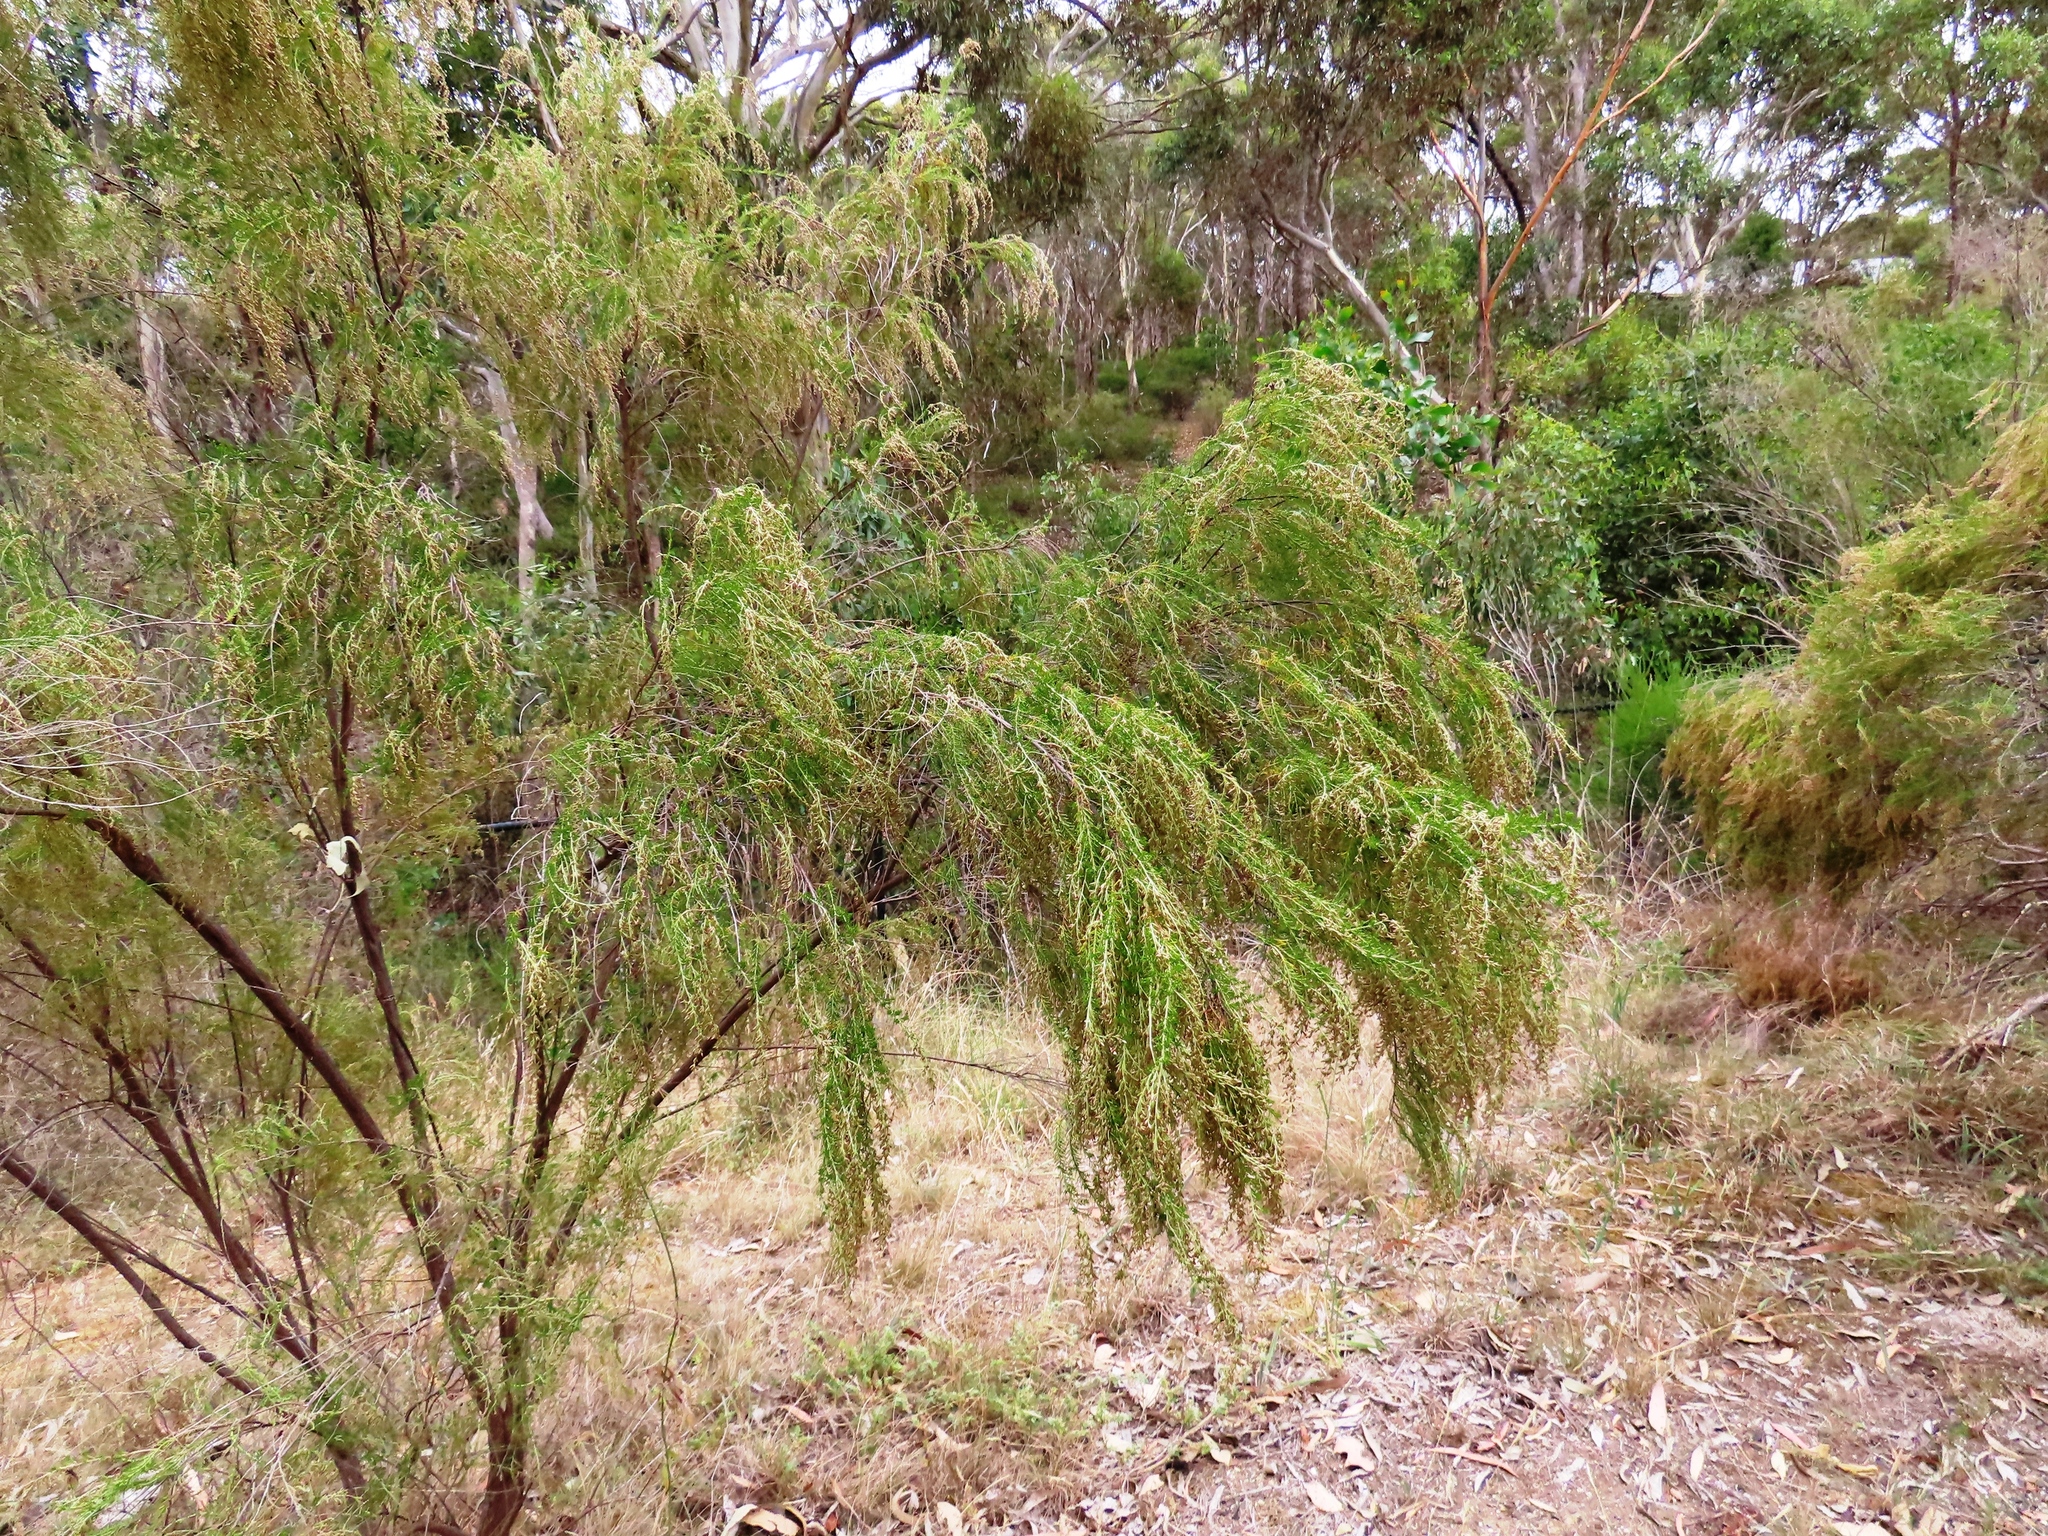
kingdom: Plantae
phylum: Tracheophyta
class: Magnoliopsida
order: Asterales
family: Asteraceae
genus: Cassinia
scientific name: Cassinia sifton
